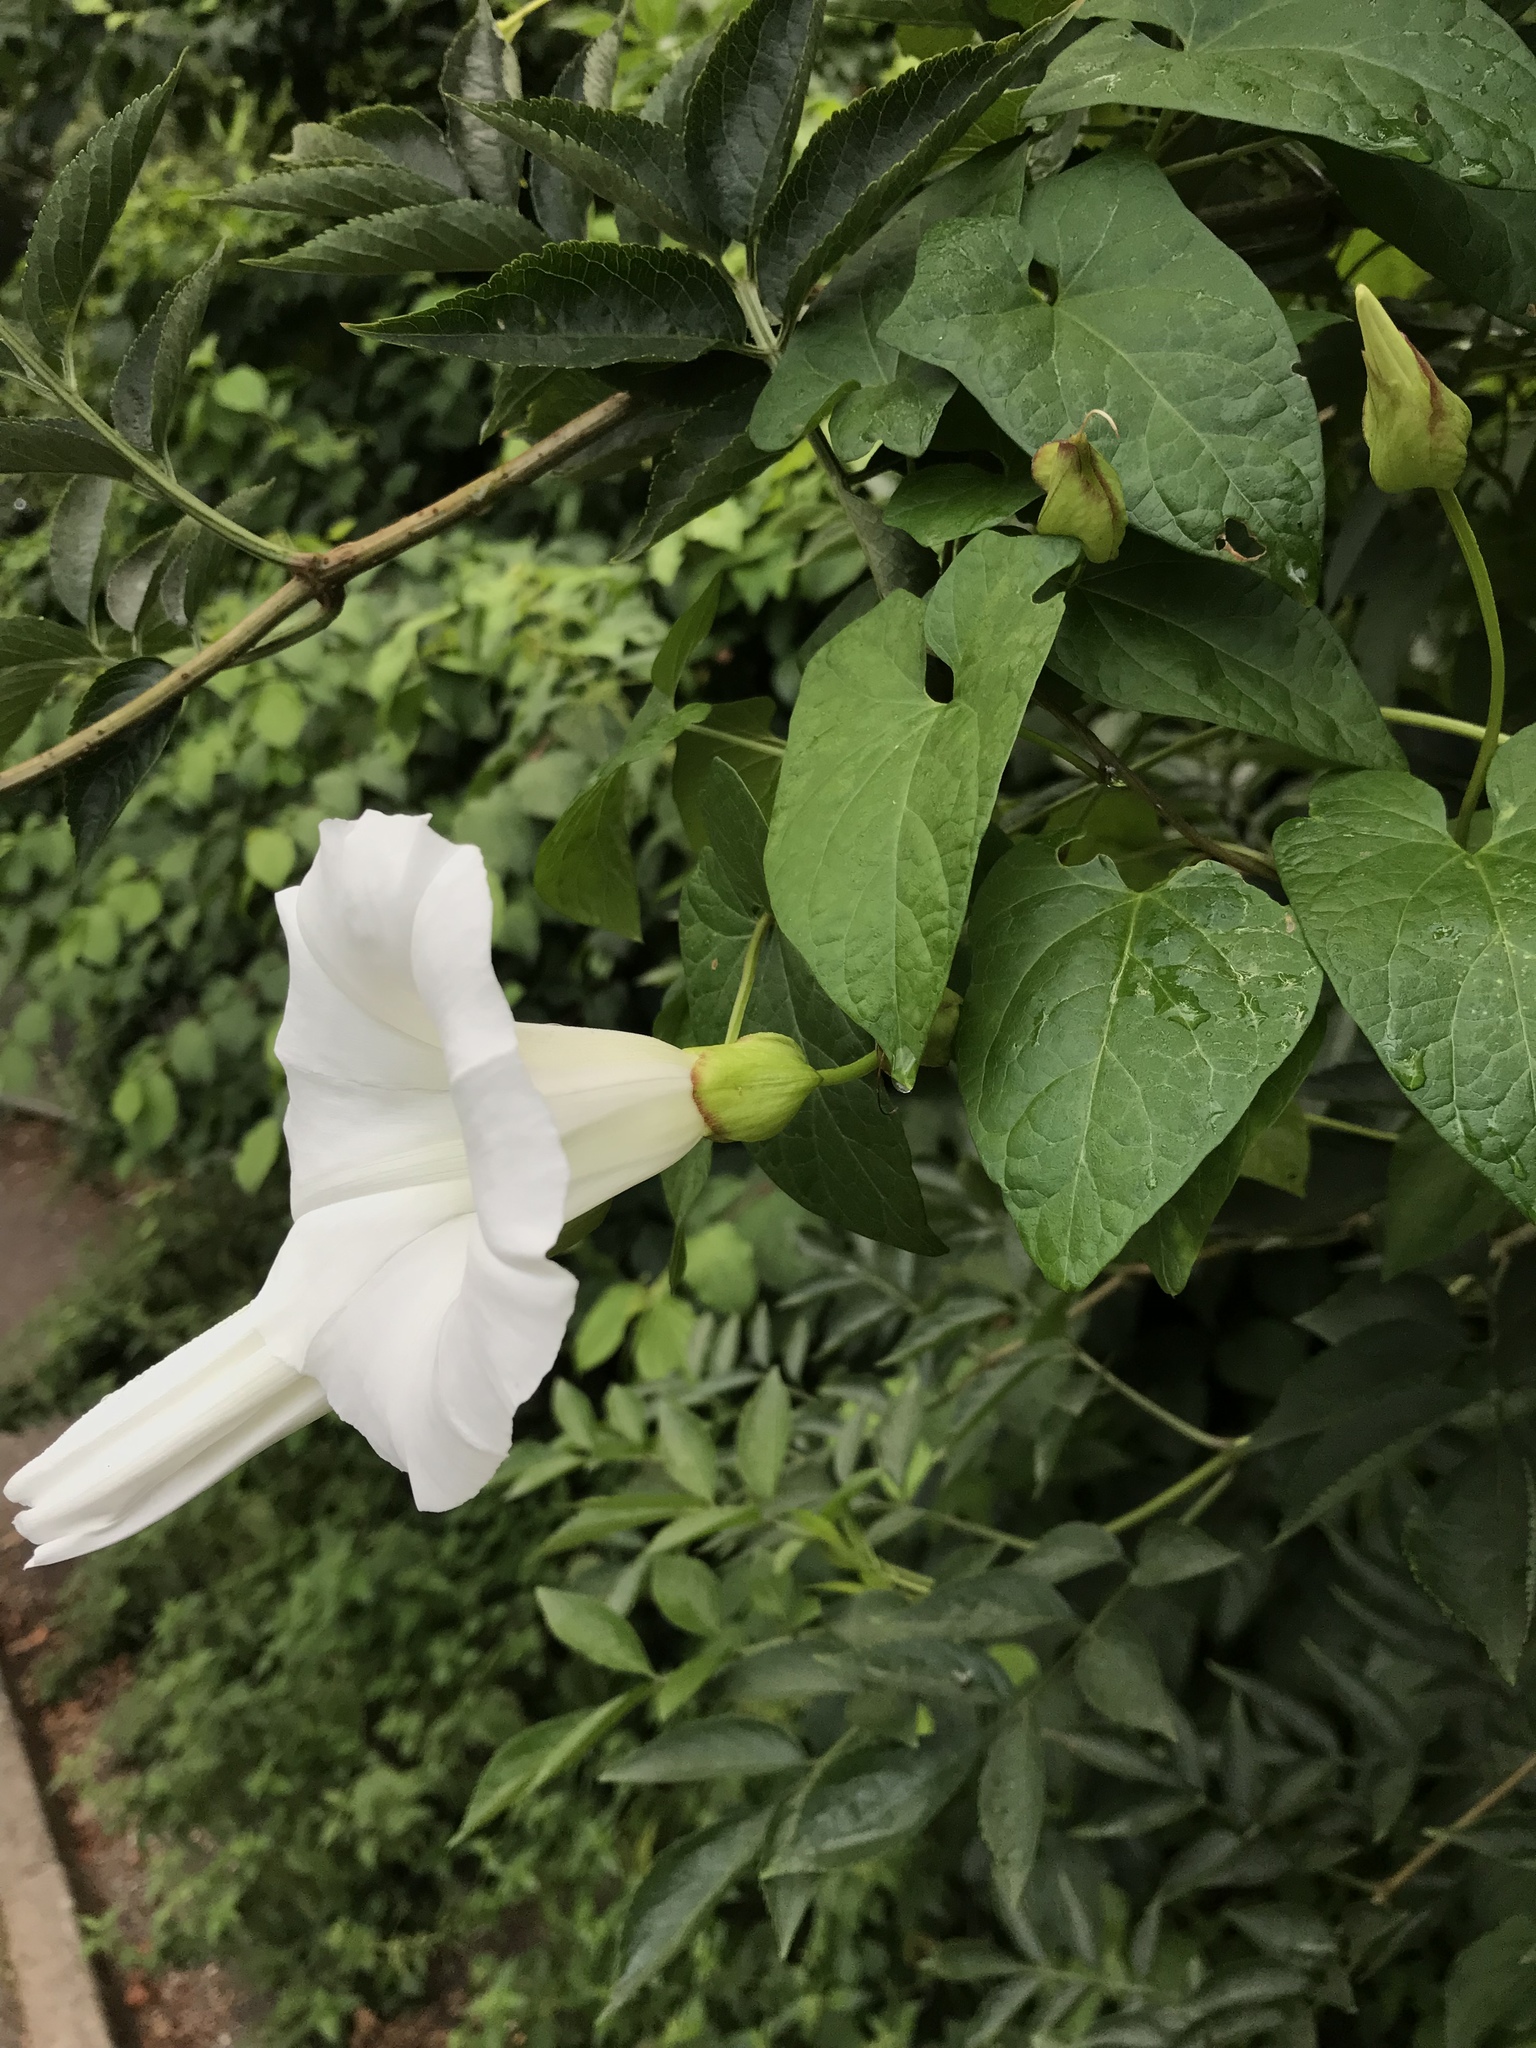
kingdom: Plantae
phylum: Tracheophyta
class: Magnoliopsida
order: Solanales
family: Convolvulaceae
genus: Calystegia
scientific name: Calystegia silvatica
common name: Large bindweed
